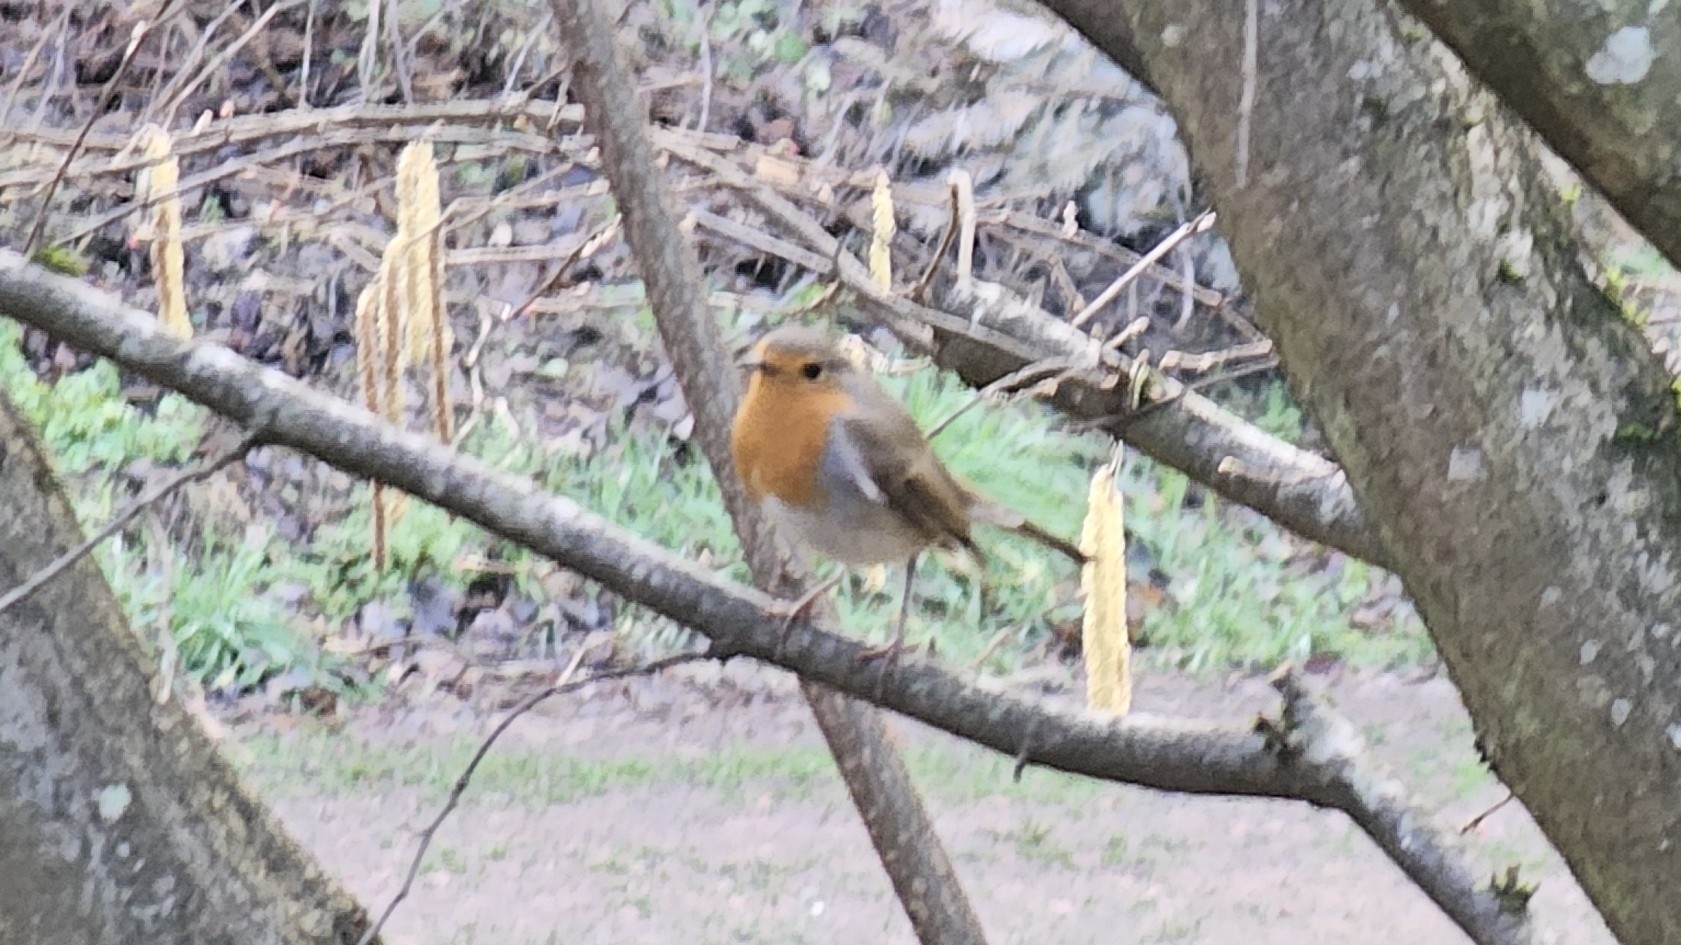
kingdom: Animalia
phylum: Chordata
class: Aves
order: Passeriformes
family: Muscicapidae
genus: Erithacus
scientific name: Erithacus rubecula
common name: European robin
